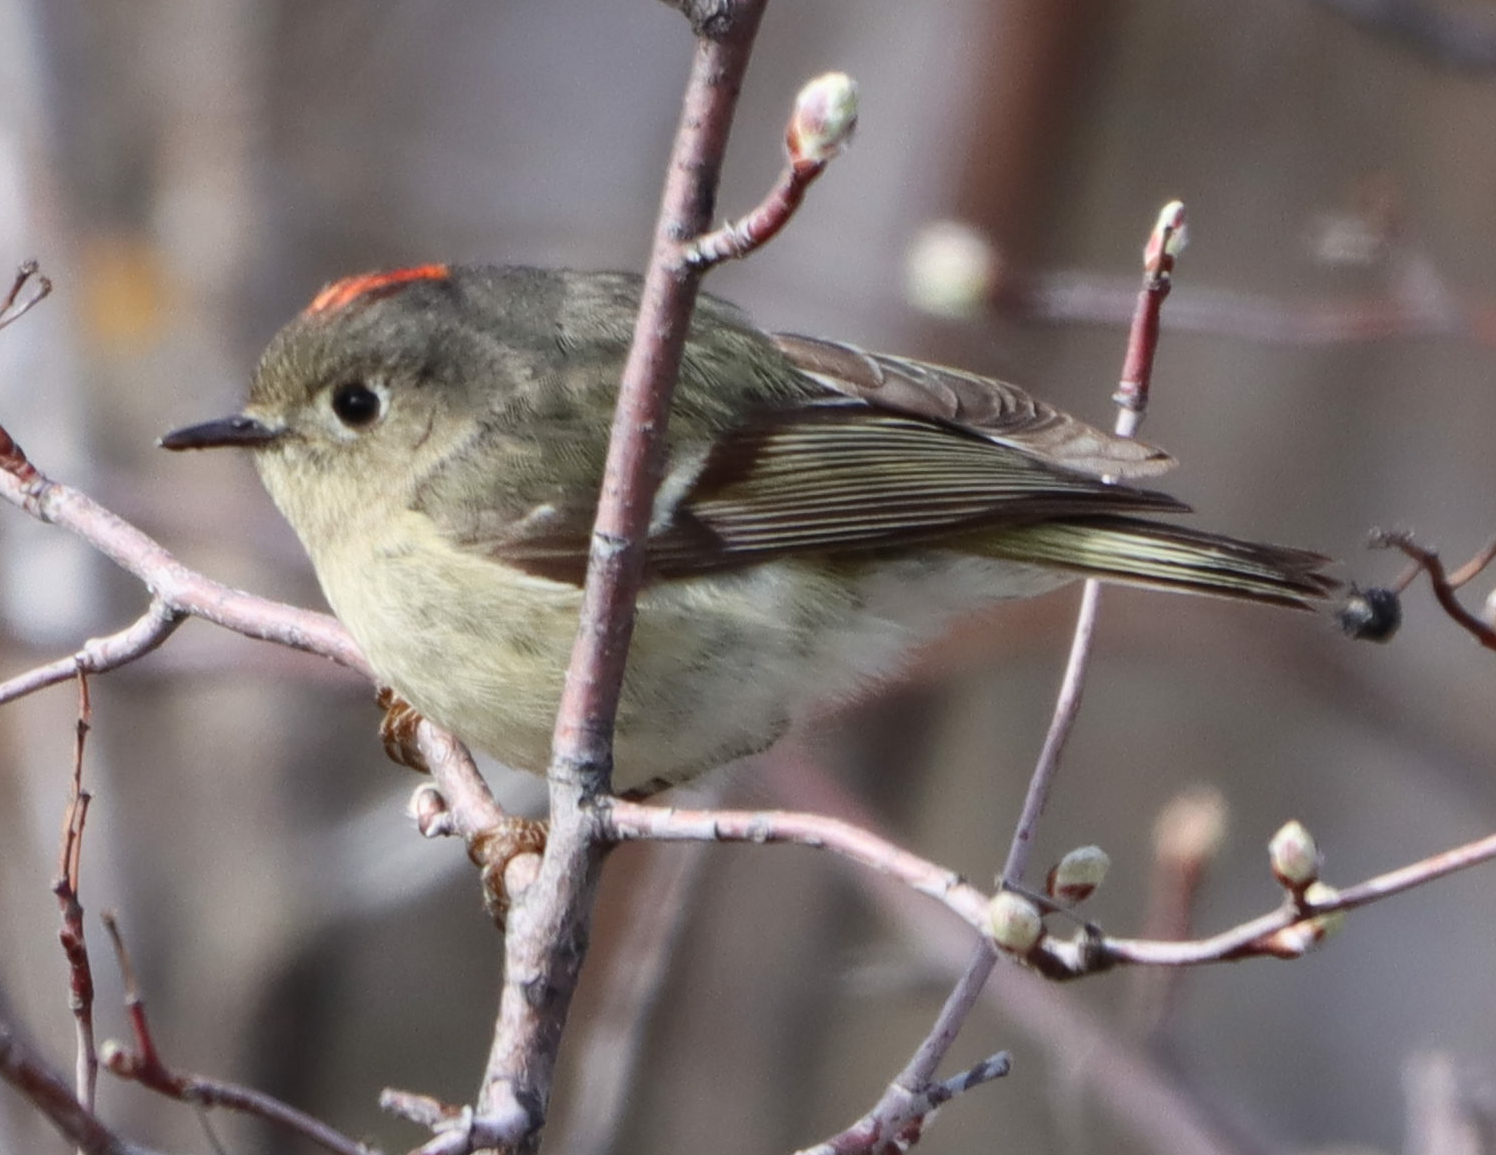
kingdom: Animalia
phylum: Chordata
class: Aves
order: Passeriformes
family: Regulidae
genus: Regulus
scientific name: Regulus calendula
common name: Ruby-crowned kinglet
